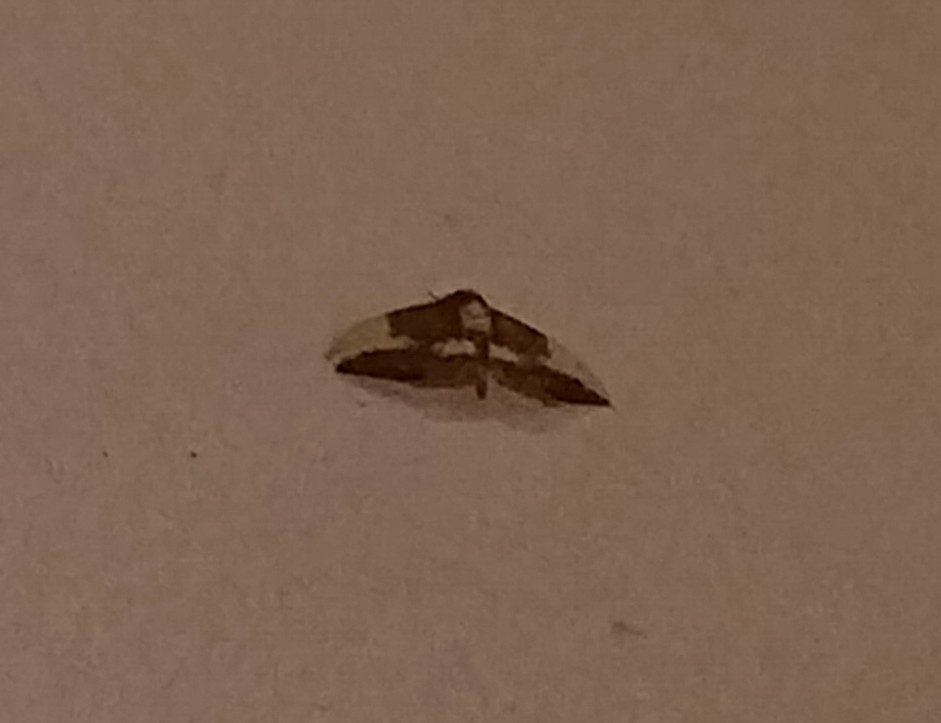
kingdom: Animalia
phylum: Arthropoda
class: Insecta
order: Lepidoptera
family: Saturniidae
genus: Eacles
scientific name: Eacles imperialis
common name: Imperial moth
